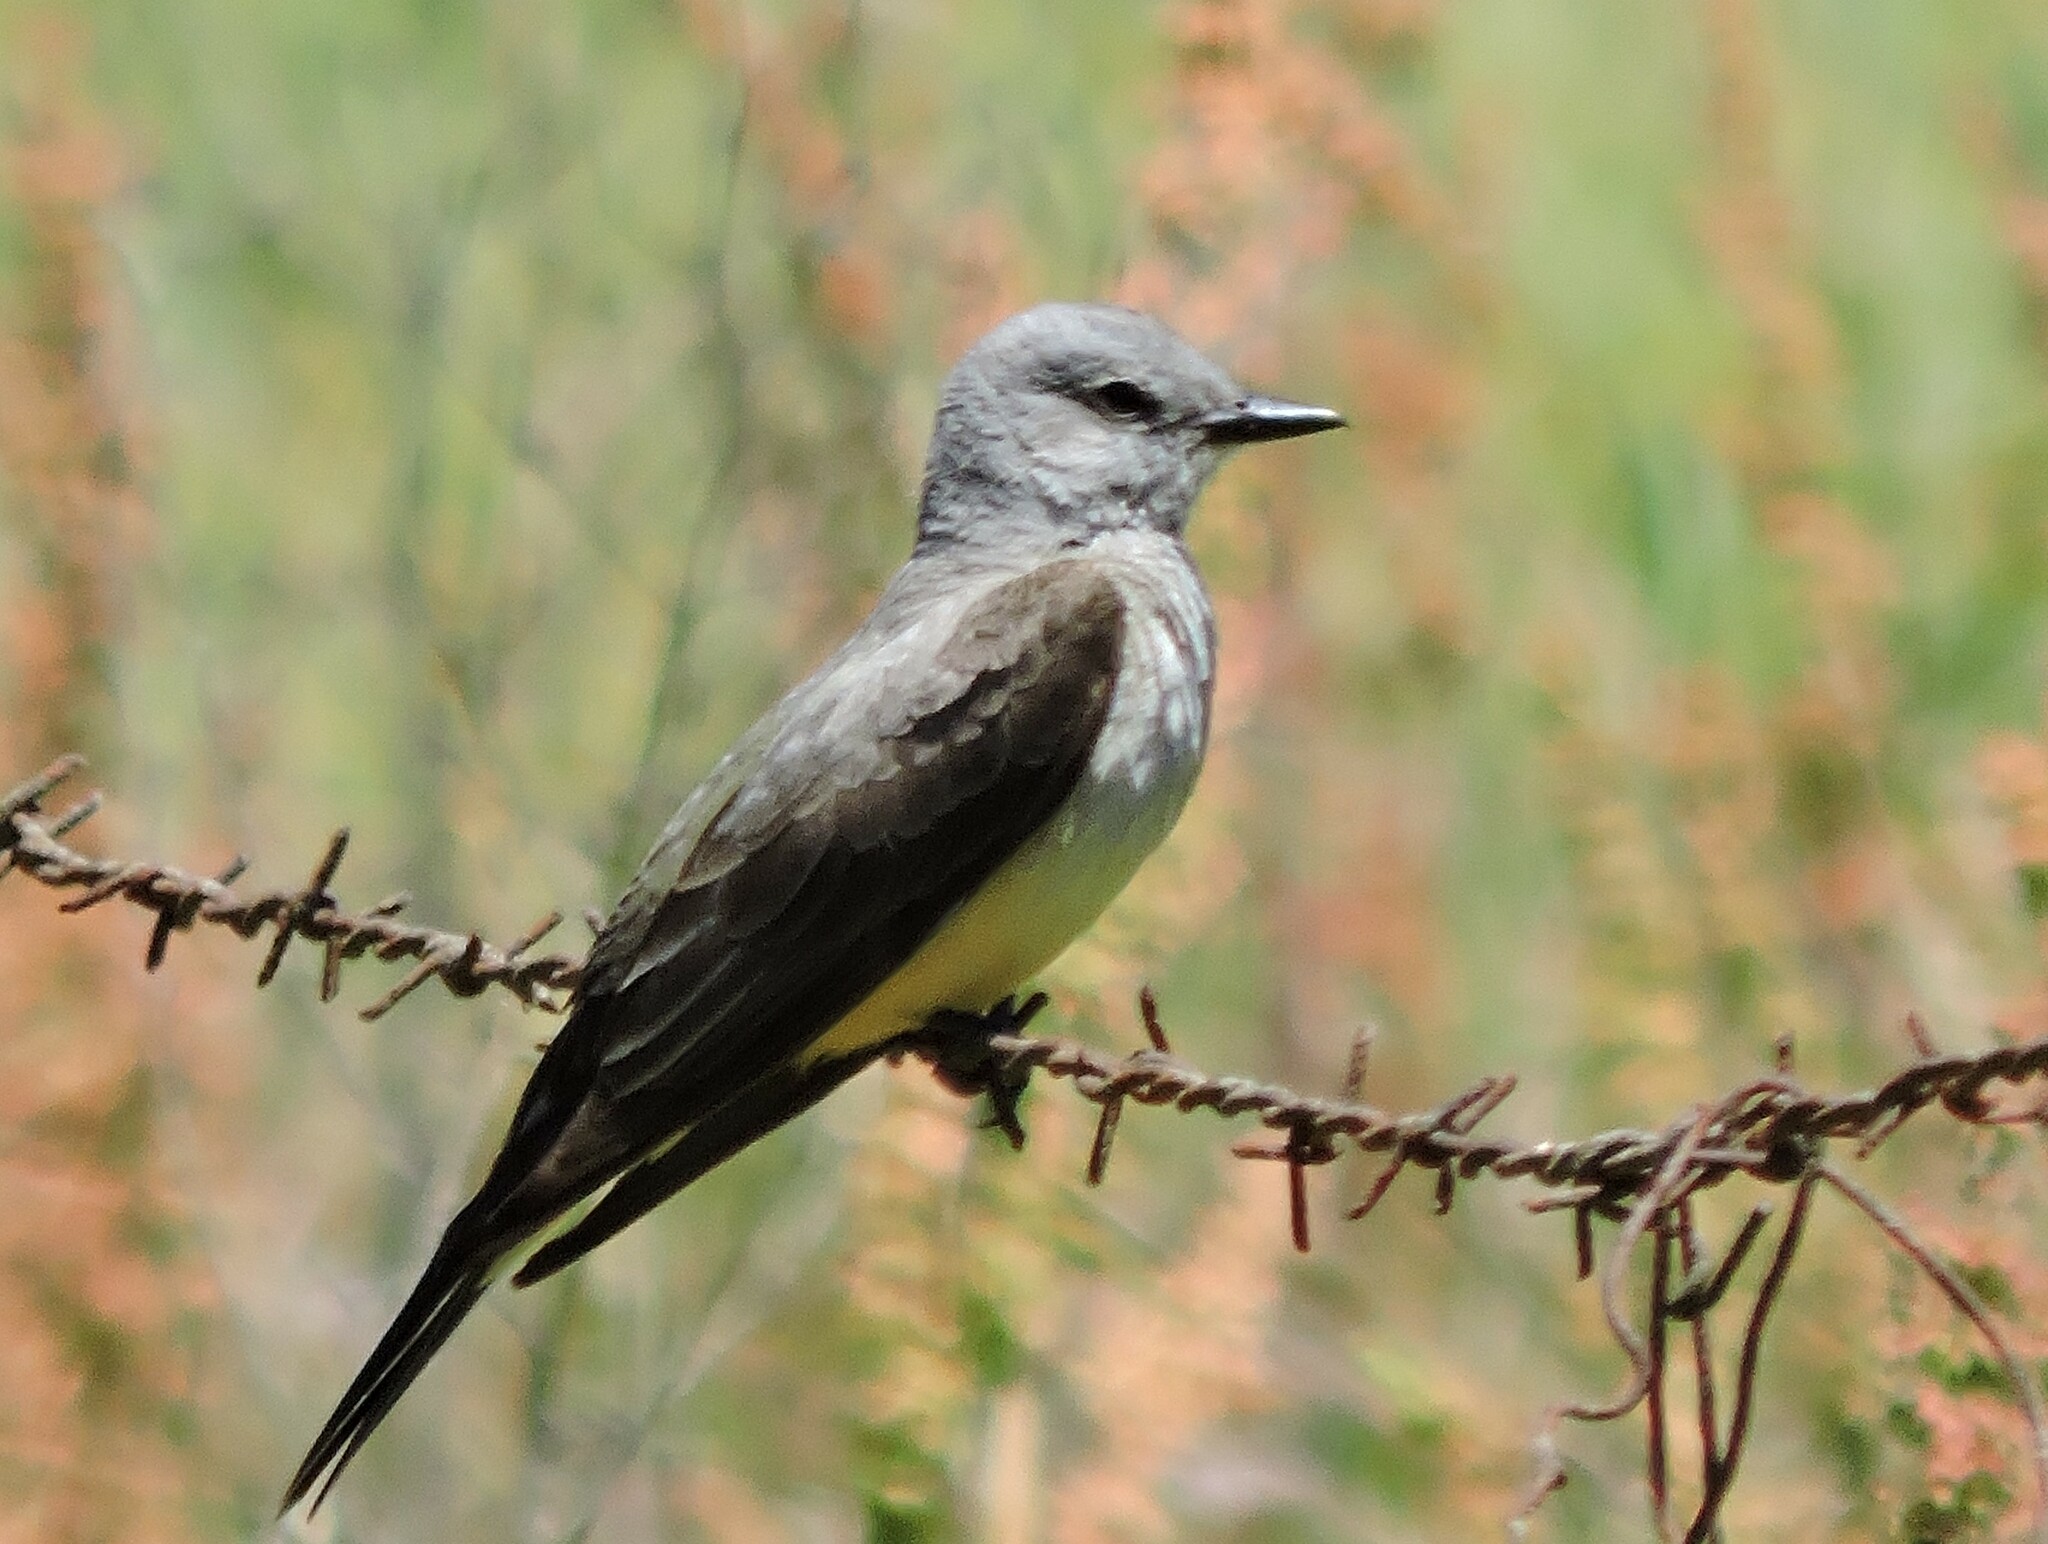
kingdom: Animalia
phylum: Chordata
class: Aves
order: Passeriformes
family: Tyrannidae
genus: Tyrannus
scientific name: Tyrannus verticalis
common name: Western kingbird
